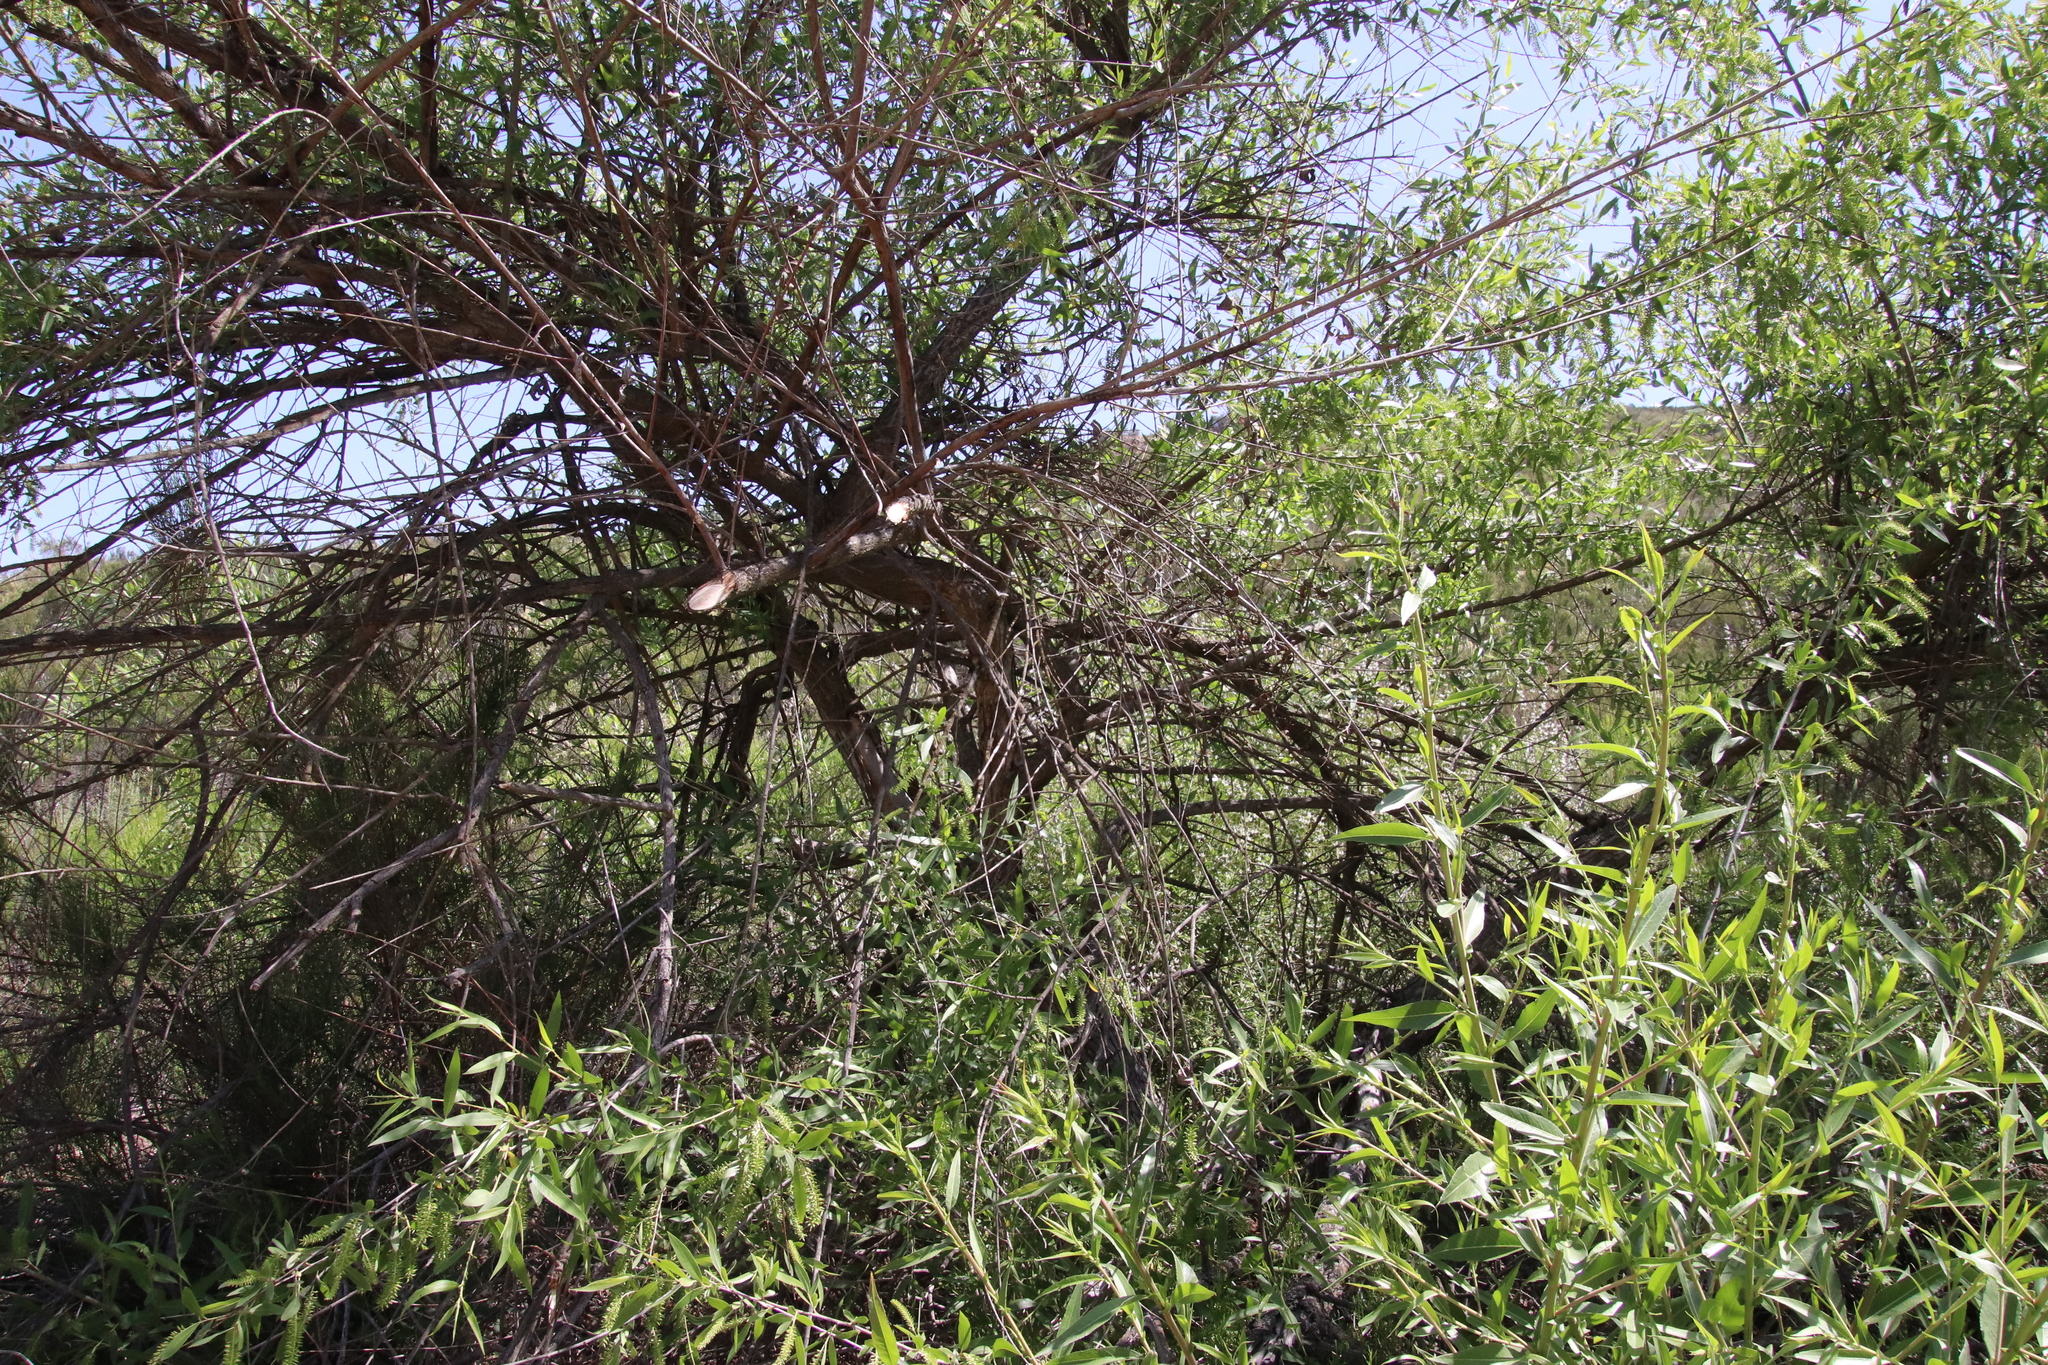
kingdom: Plantae
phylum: Tracheophyta
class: Magnoliopsida
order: Malpighiales
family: Salicaceae
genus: Salix
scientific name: Salix gooddingii
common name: Goodding's willow
